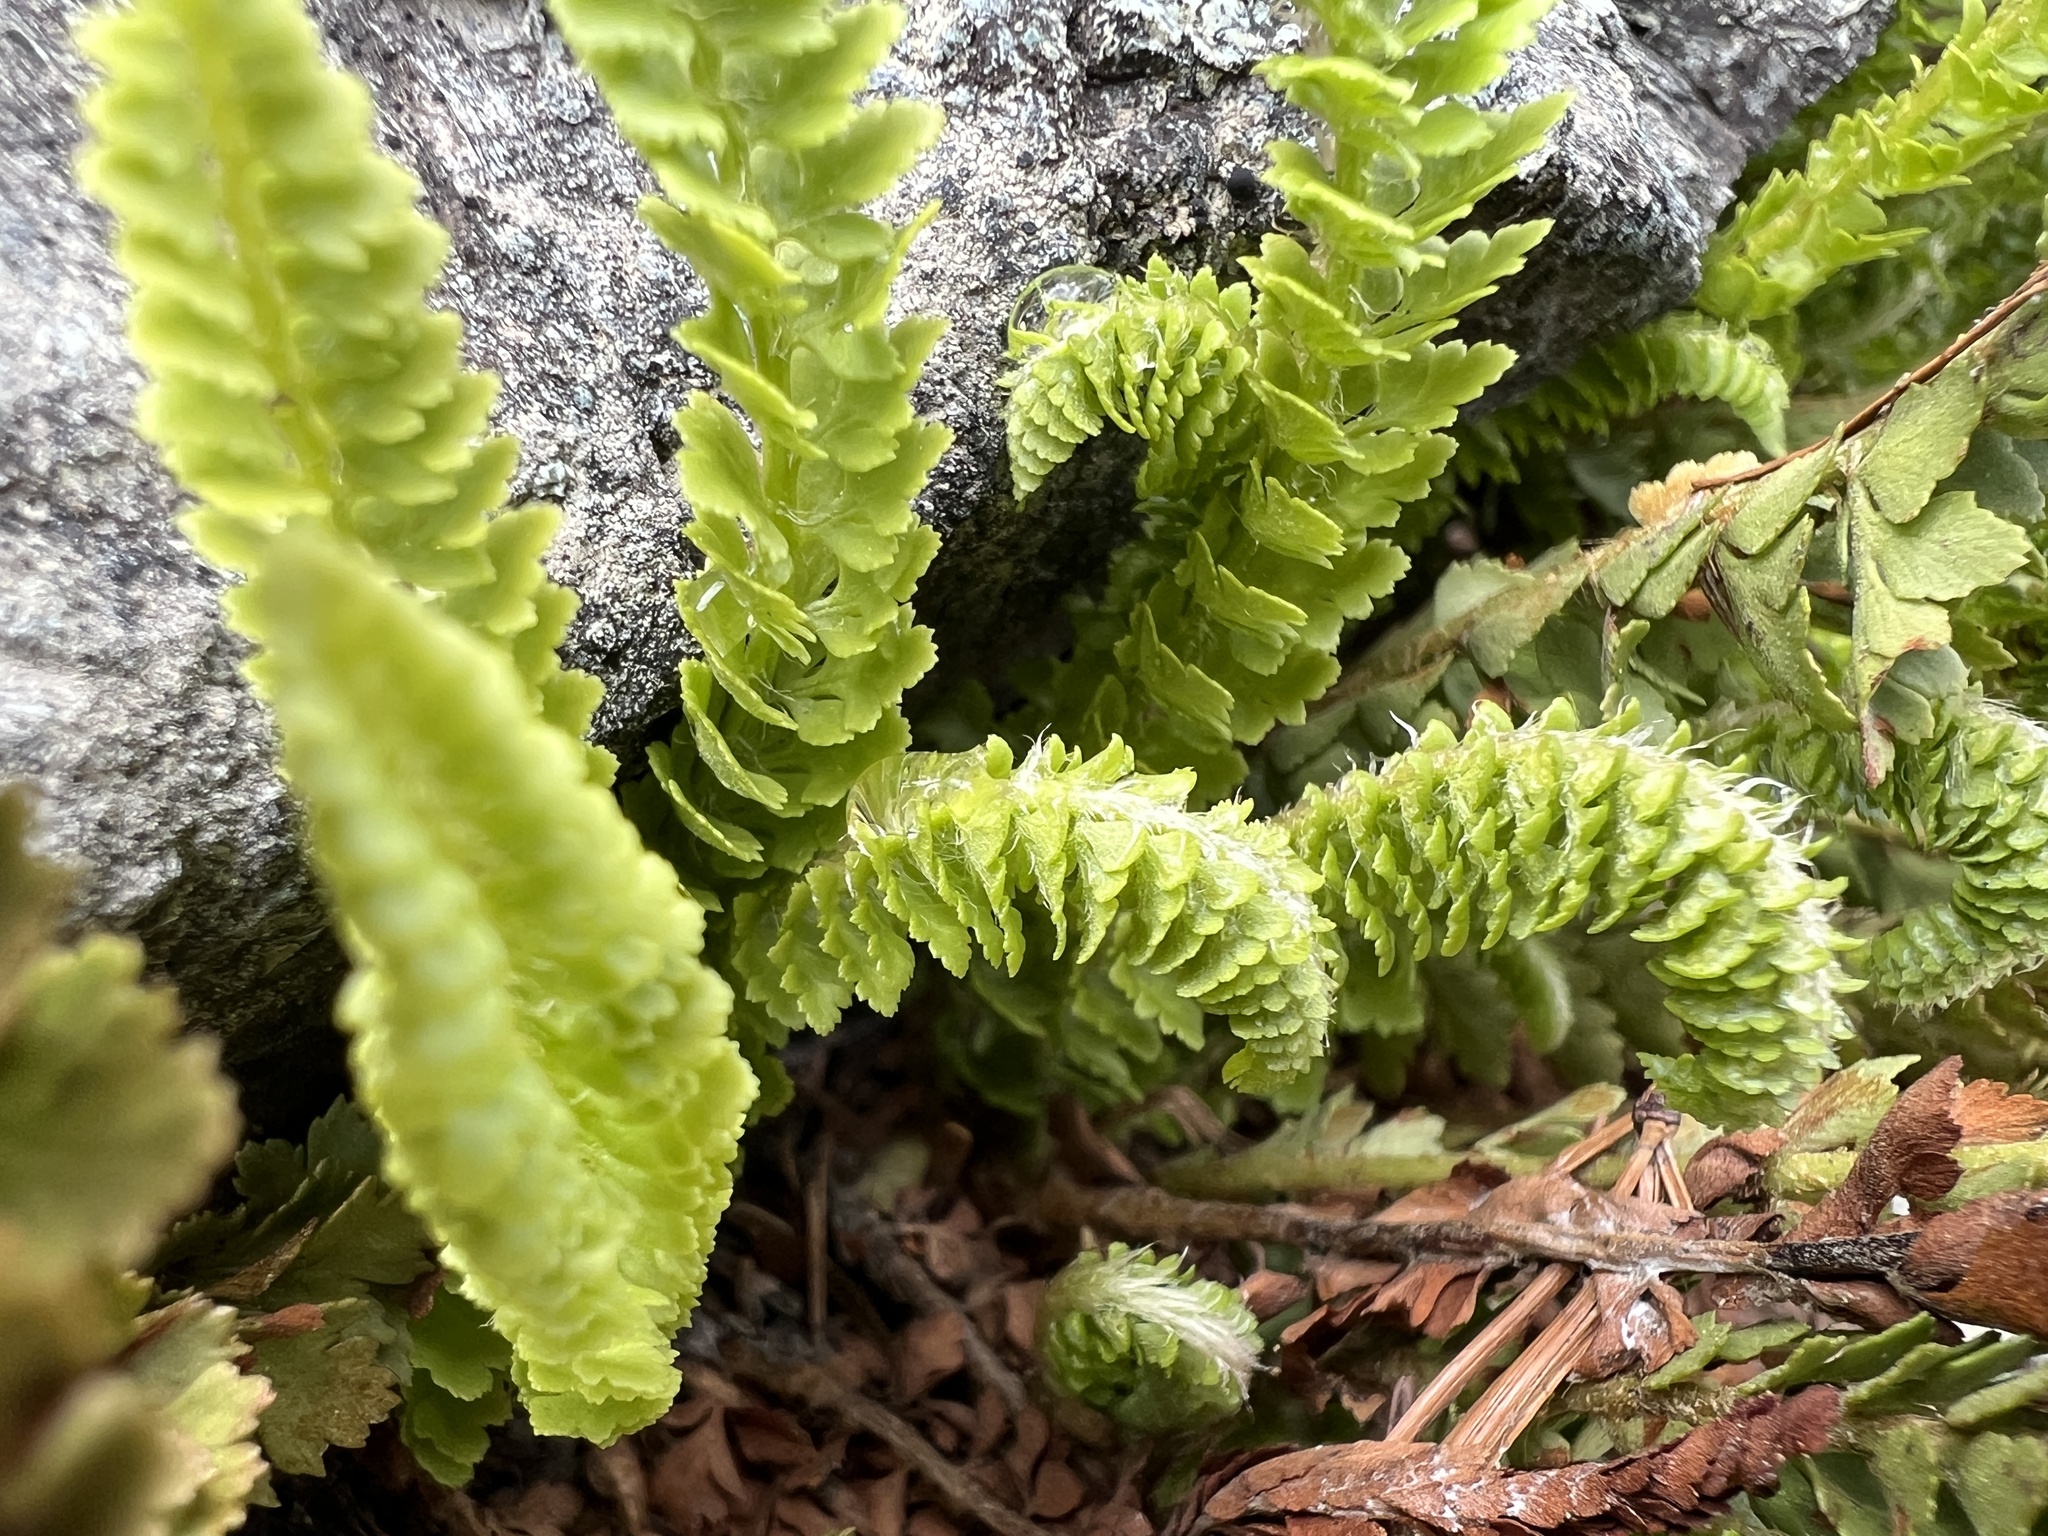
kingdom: Plantae
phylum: Tracheophyta
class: Polypodiopsida
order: Polypodiales
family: Dryopteridaceae
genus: Polystichum
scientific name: Polystichum lemmonii
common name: Lemmon's holly fern
